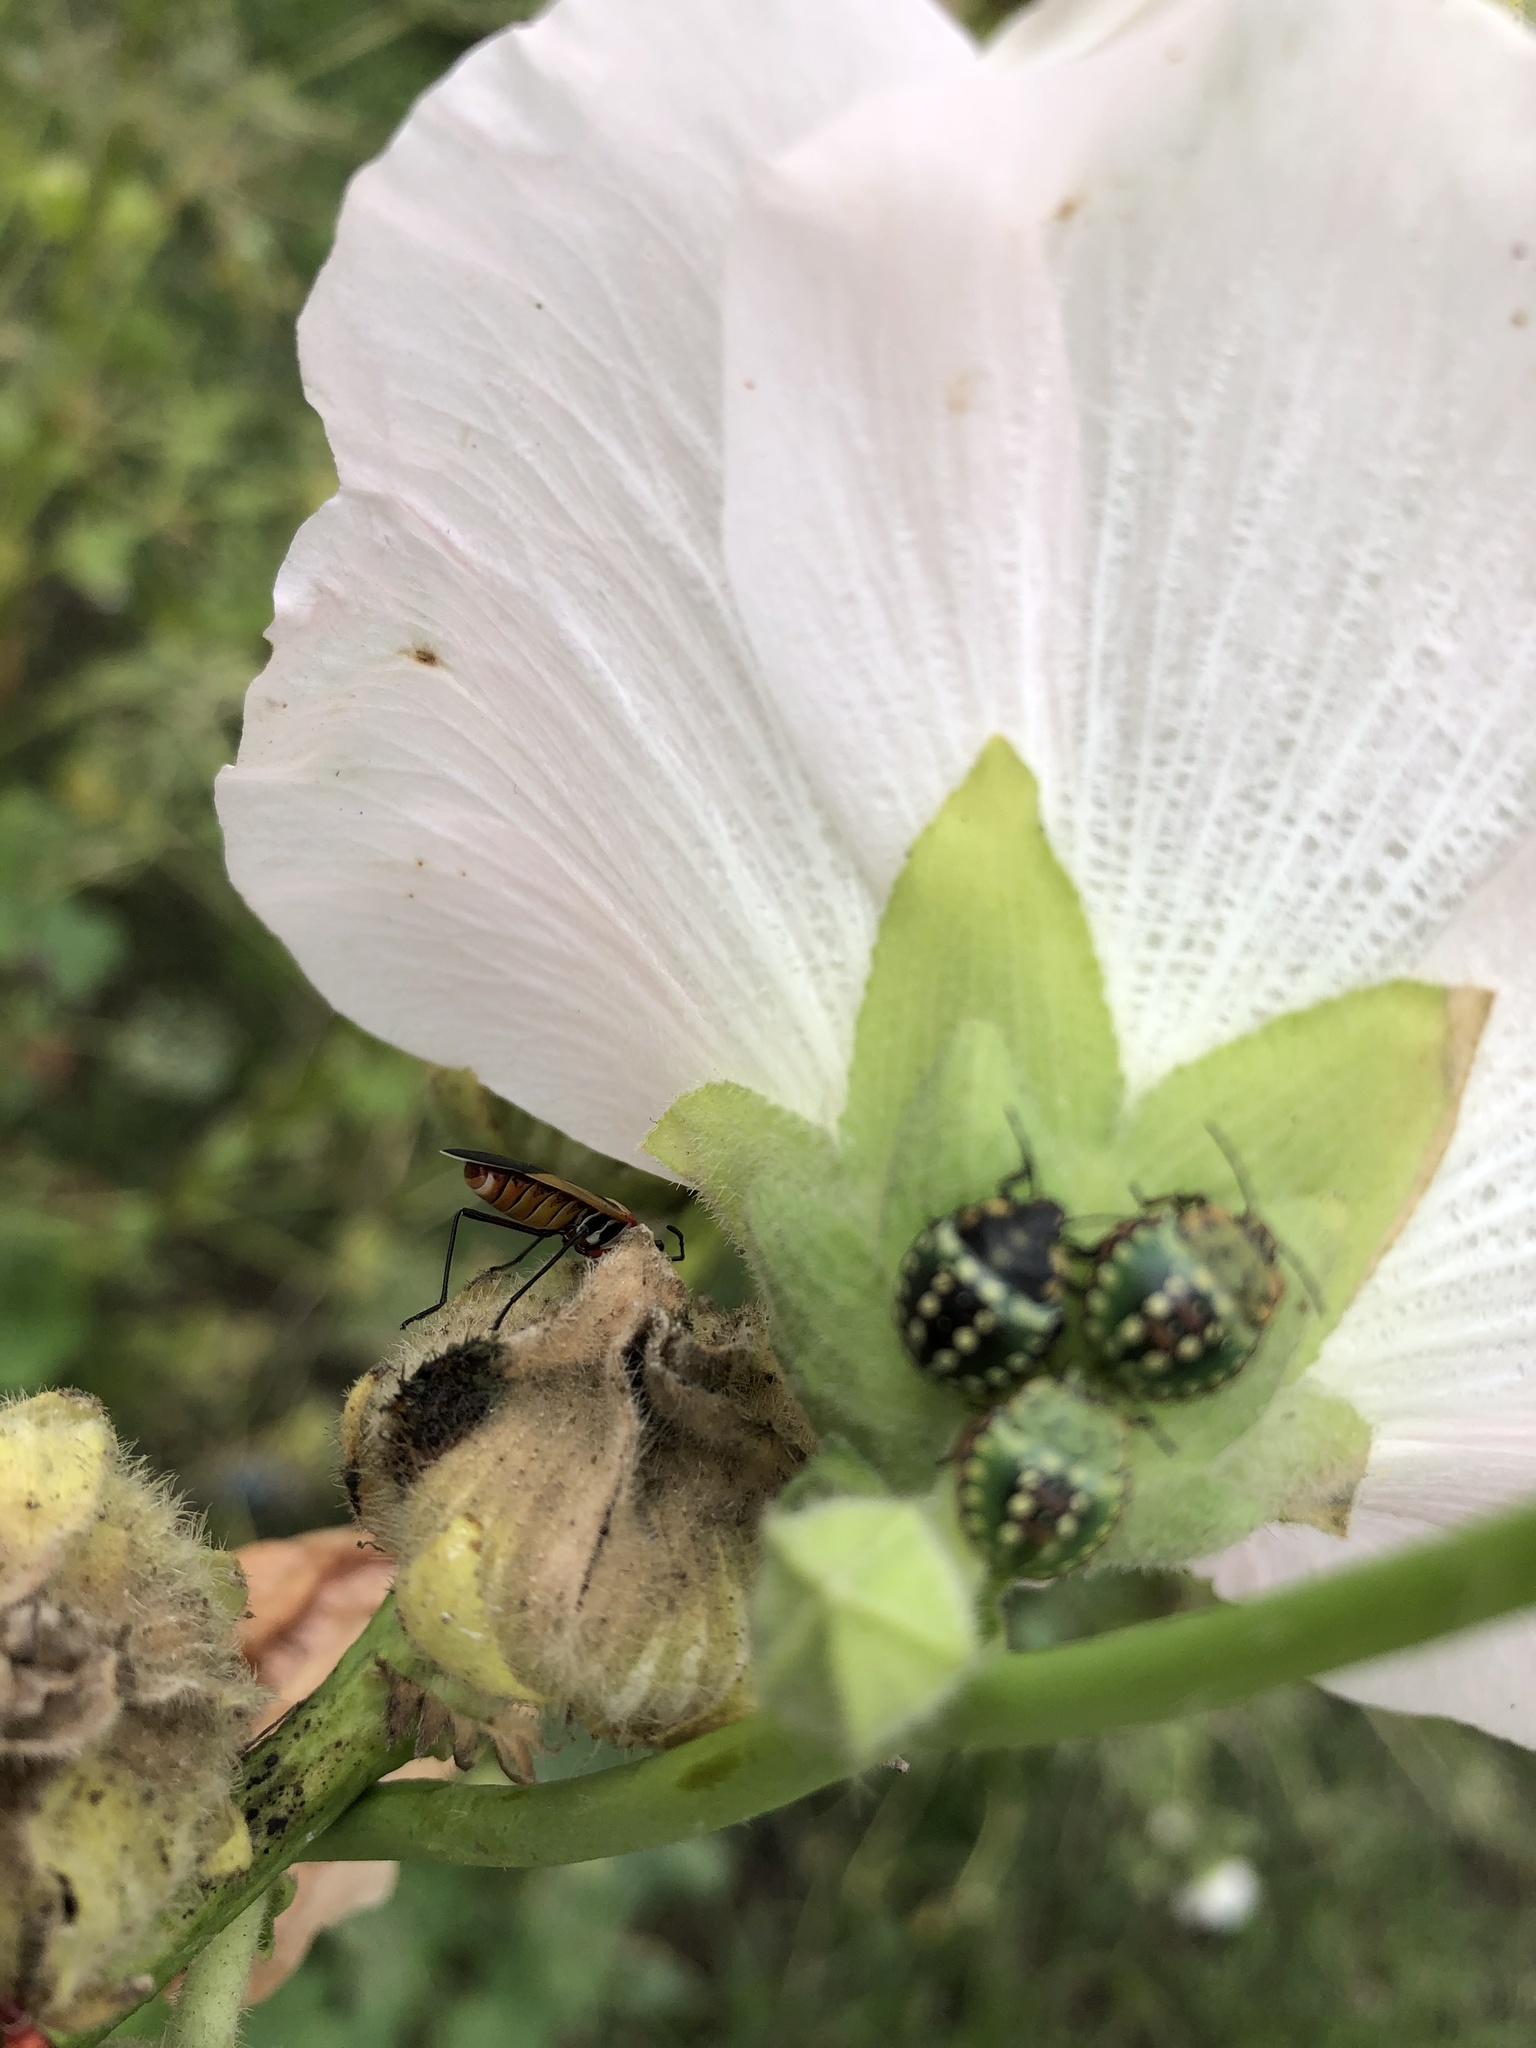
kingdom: Animalia
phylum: Arthropoda
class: Insecta
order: Hemiptera
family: Pentatomidae
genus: Nezara
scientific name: Nezara viridula
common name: Southern green stink bug
